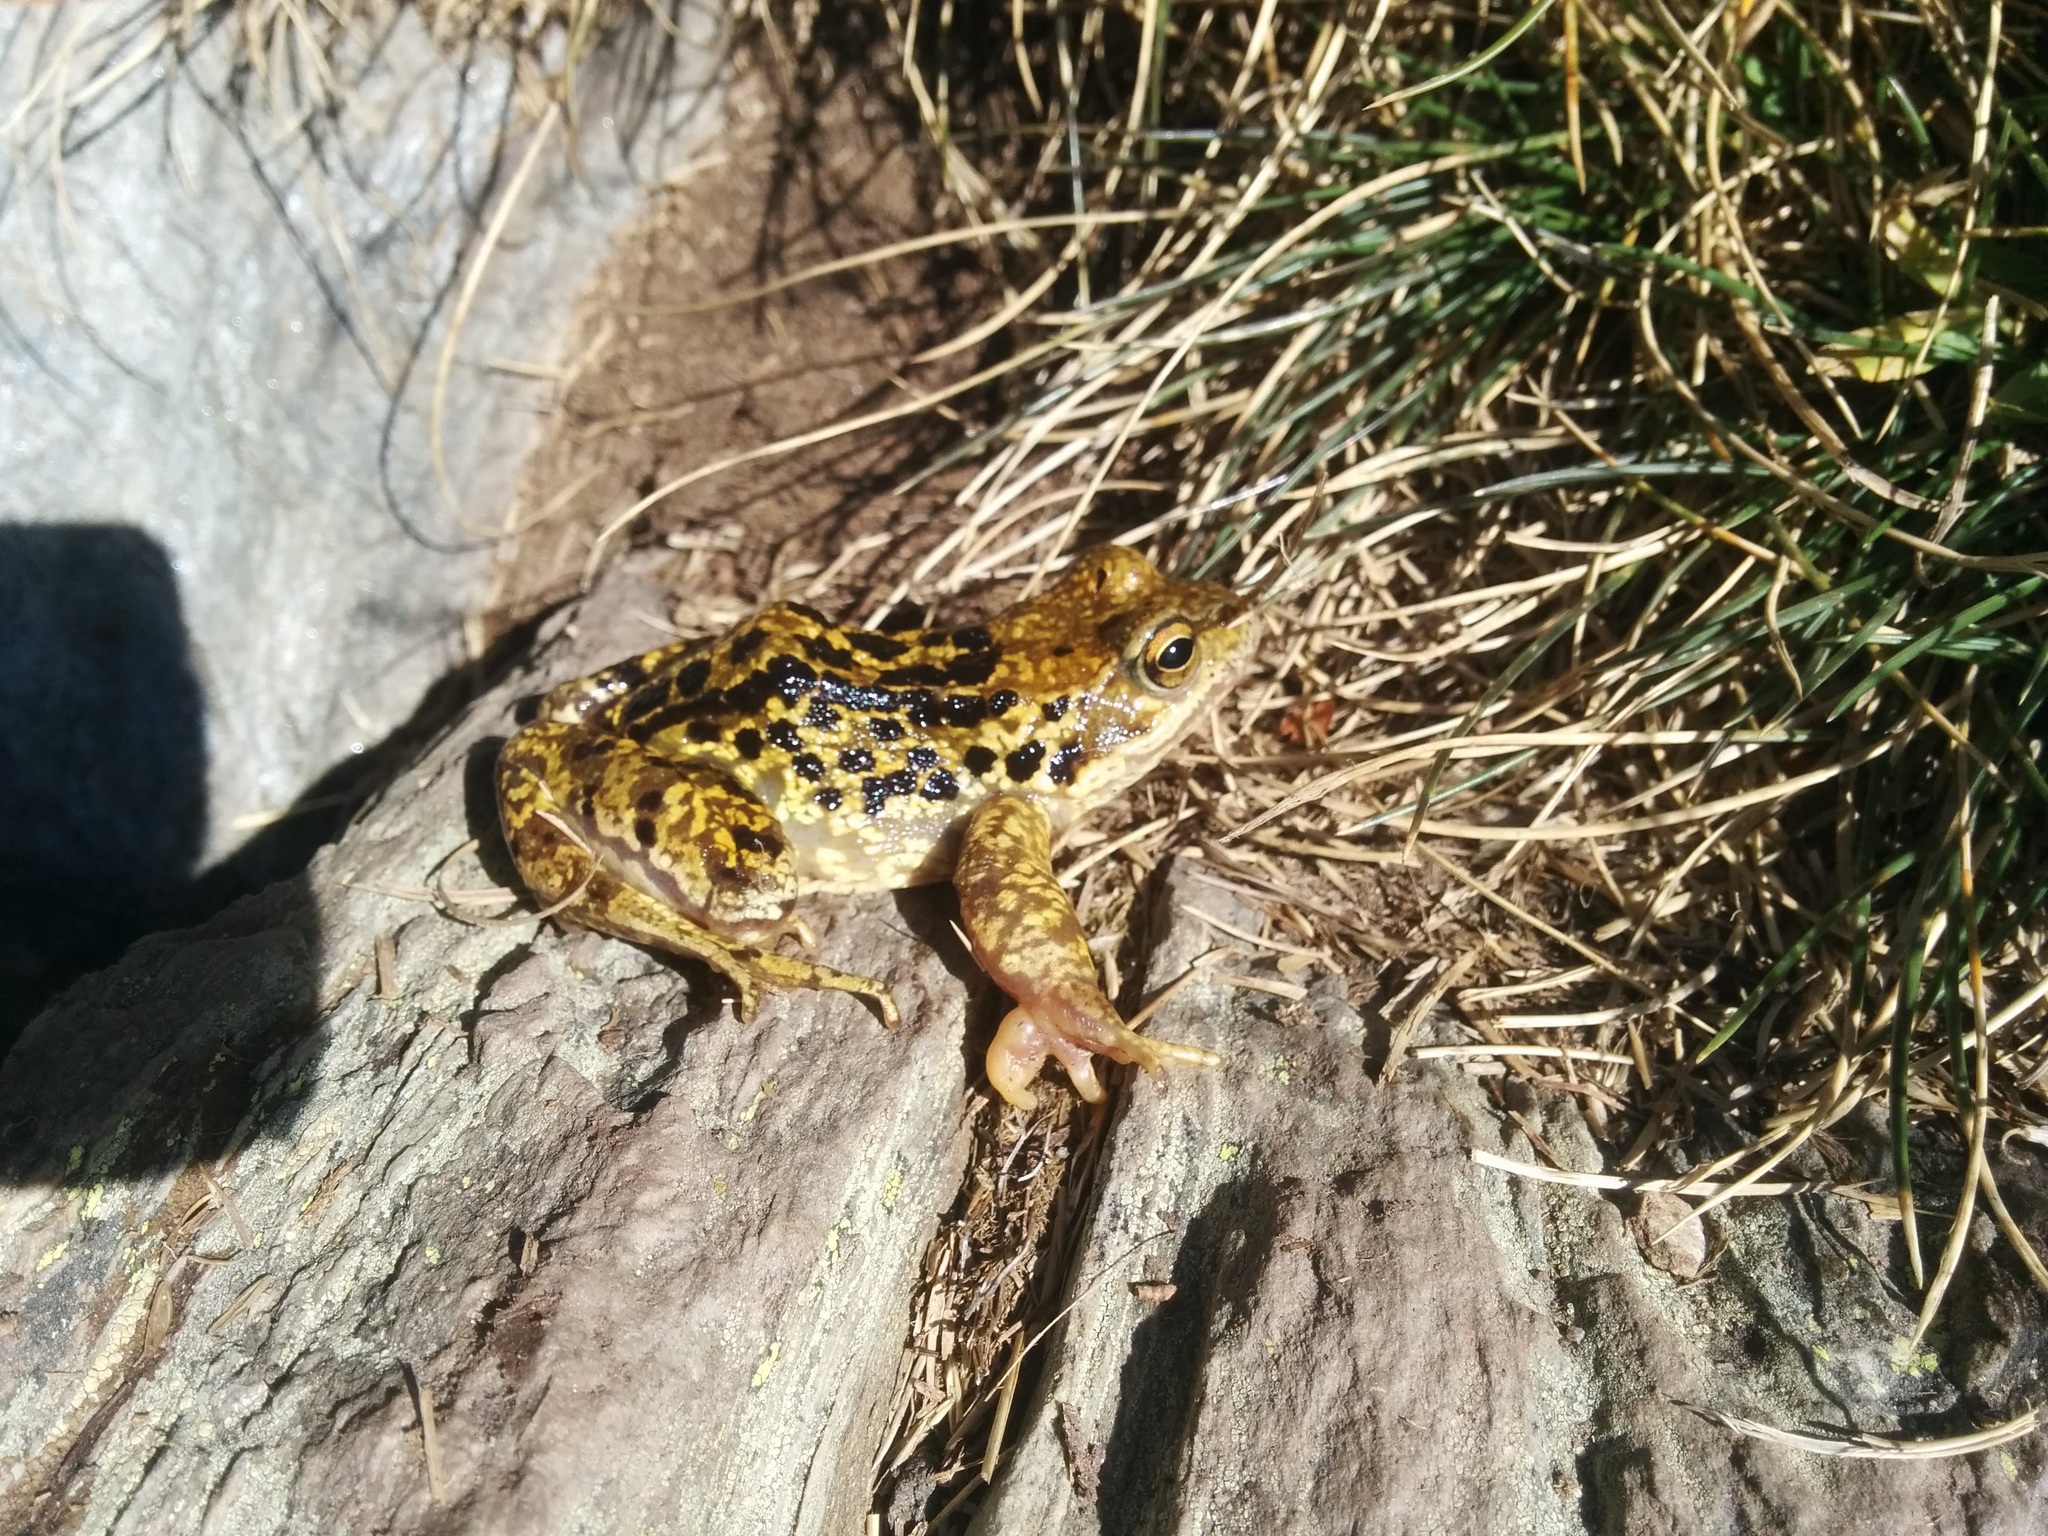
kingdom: Animalia
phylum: Chordata
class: Amphibia
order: Anura
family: Ranidae
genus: Rana
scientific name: Rana temporaria
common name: Common frog
